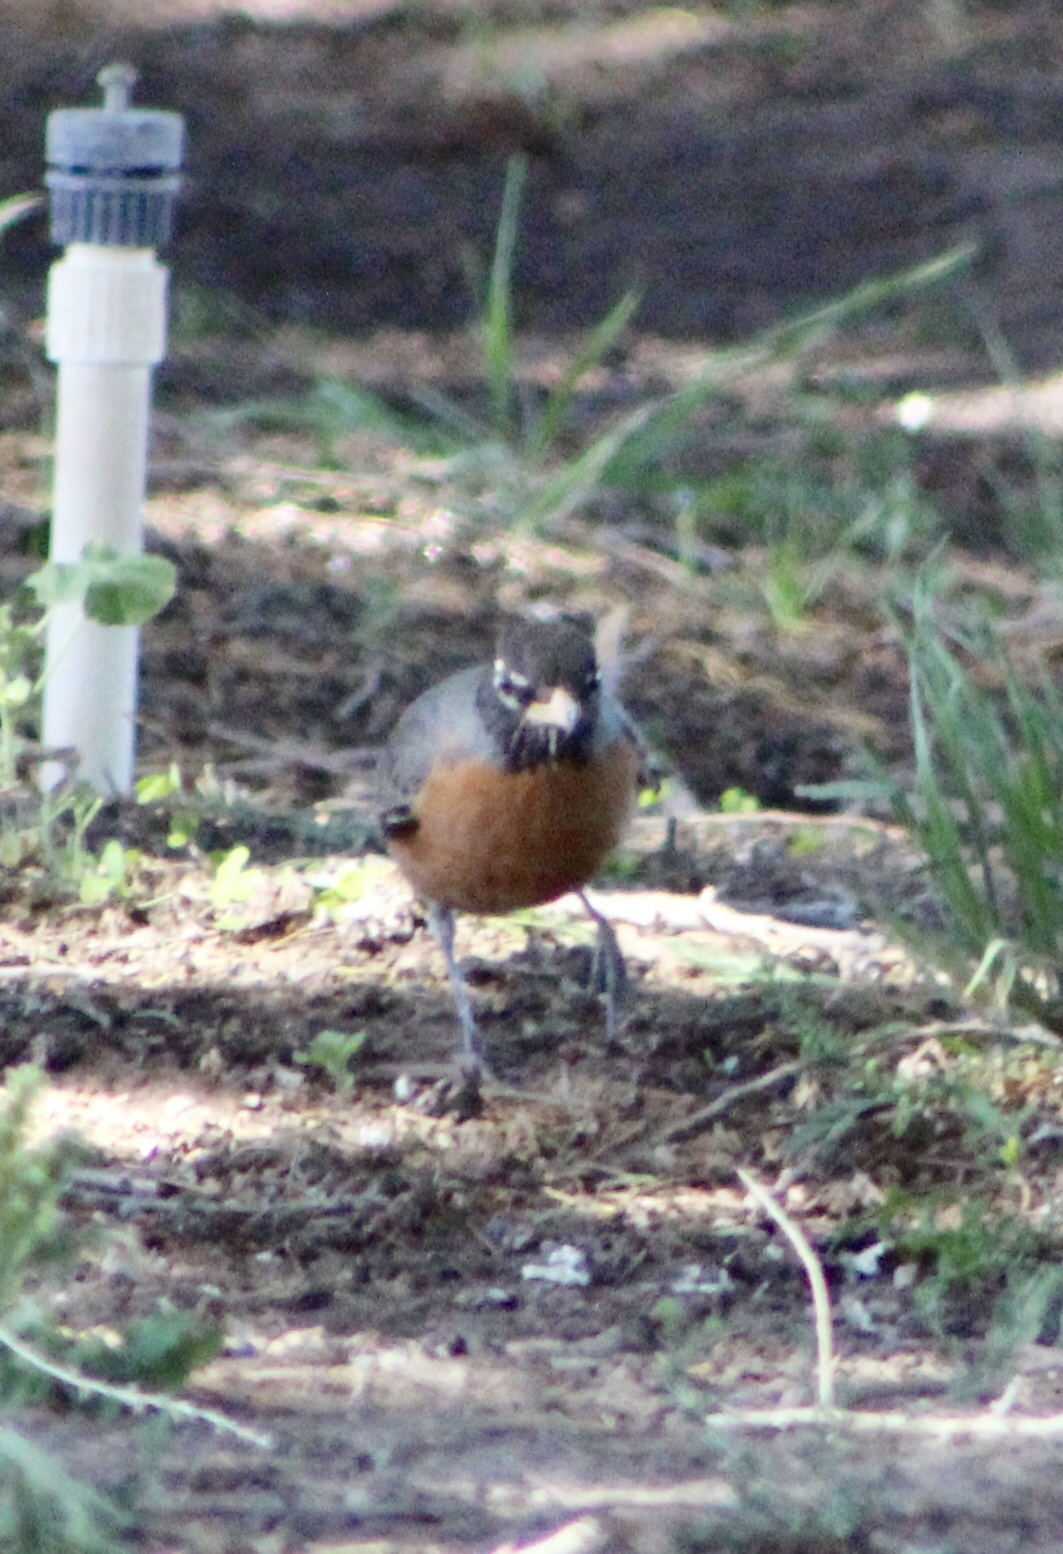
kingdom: Animalia
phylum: Chordata
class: Aves
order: Passeriformes
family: Turdidae
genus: Turdus
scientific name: Turdus migratorius
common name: American robin
